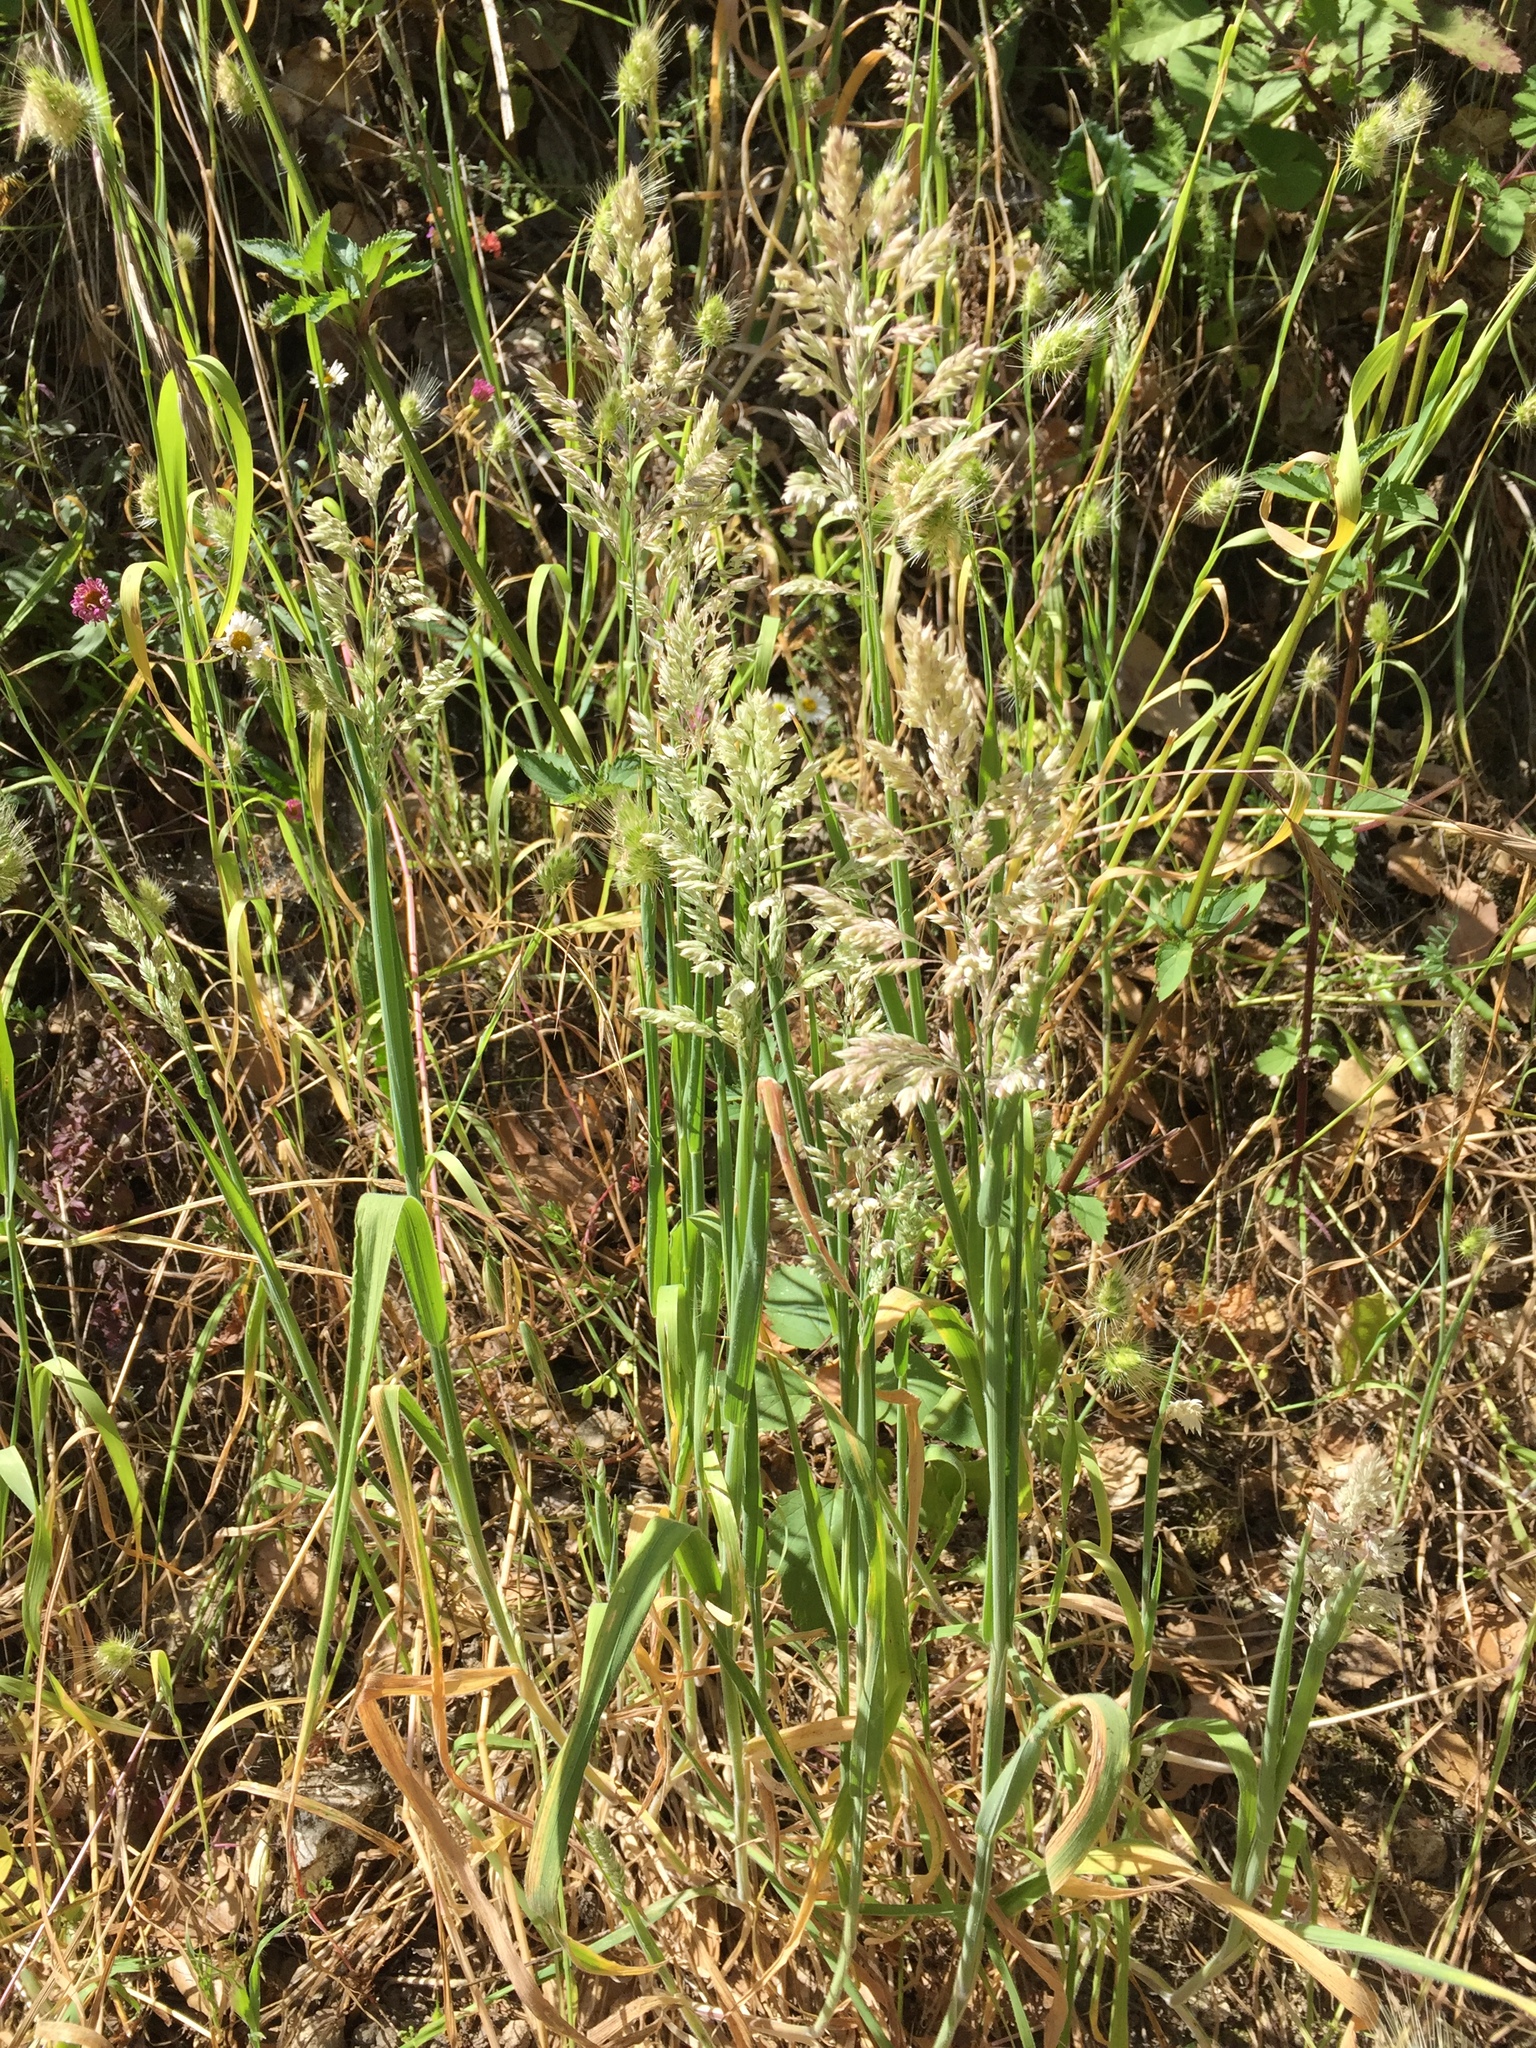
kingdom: Plantae
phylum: Tracheophyta
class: Liliopsida
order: Poales
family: Poaceae
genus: Holcus
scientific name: Holcus lanatus
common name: Yorkshire-fog
